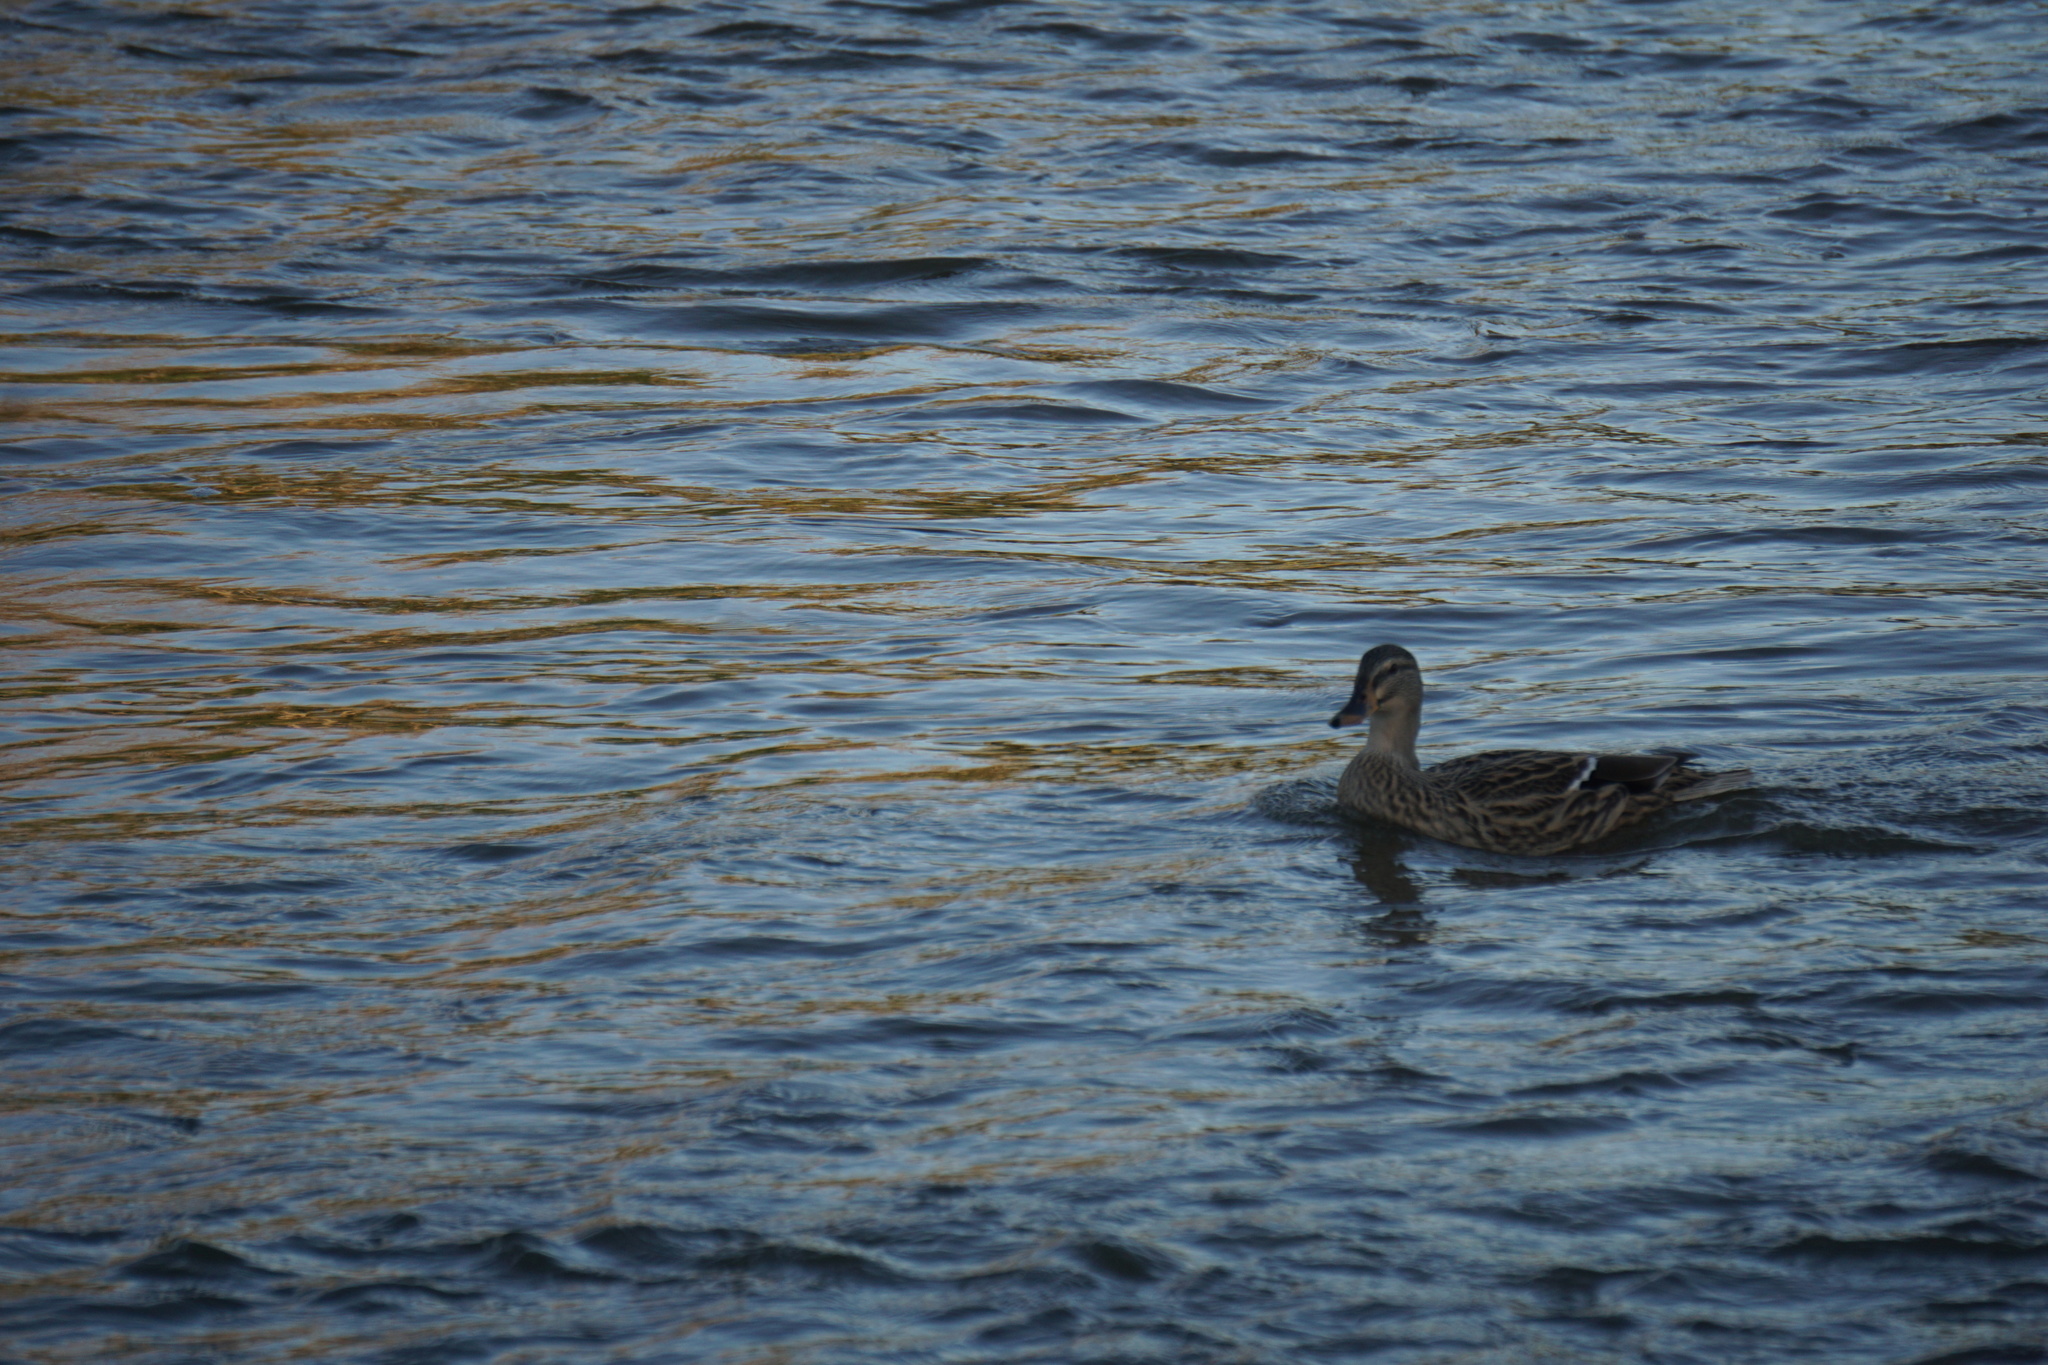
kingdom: Animalia
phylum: Chordata
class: Aves
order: Anseriformes
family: Anatidae
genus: Anas
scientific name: Anas
